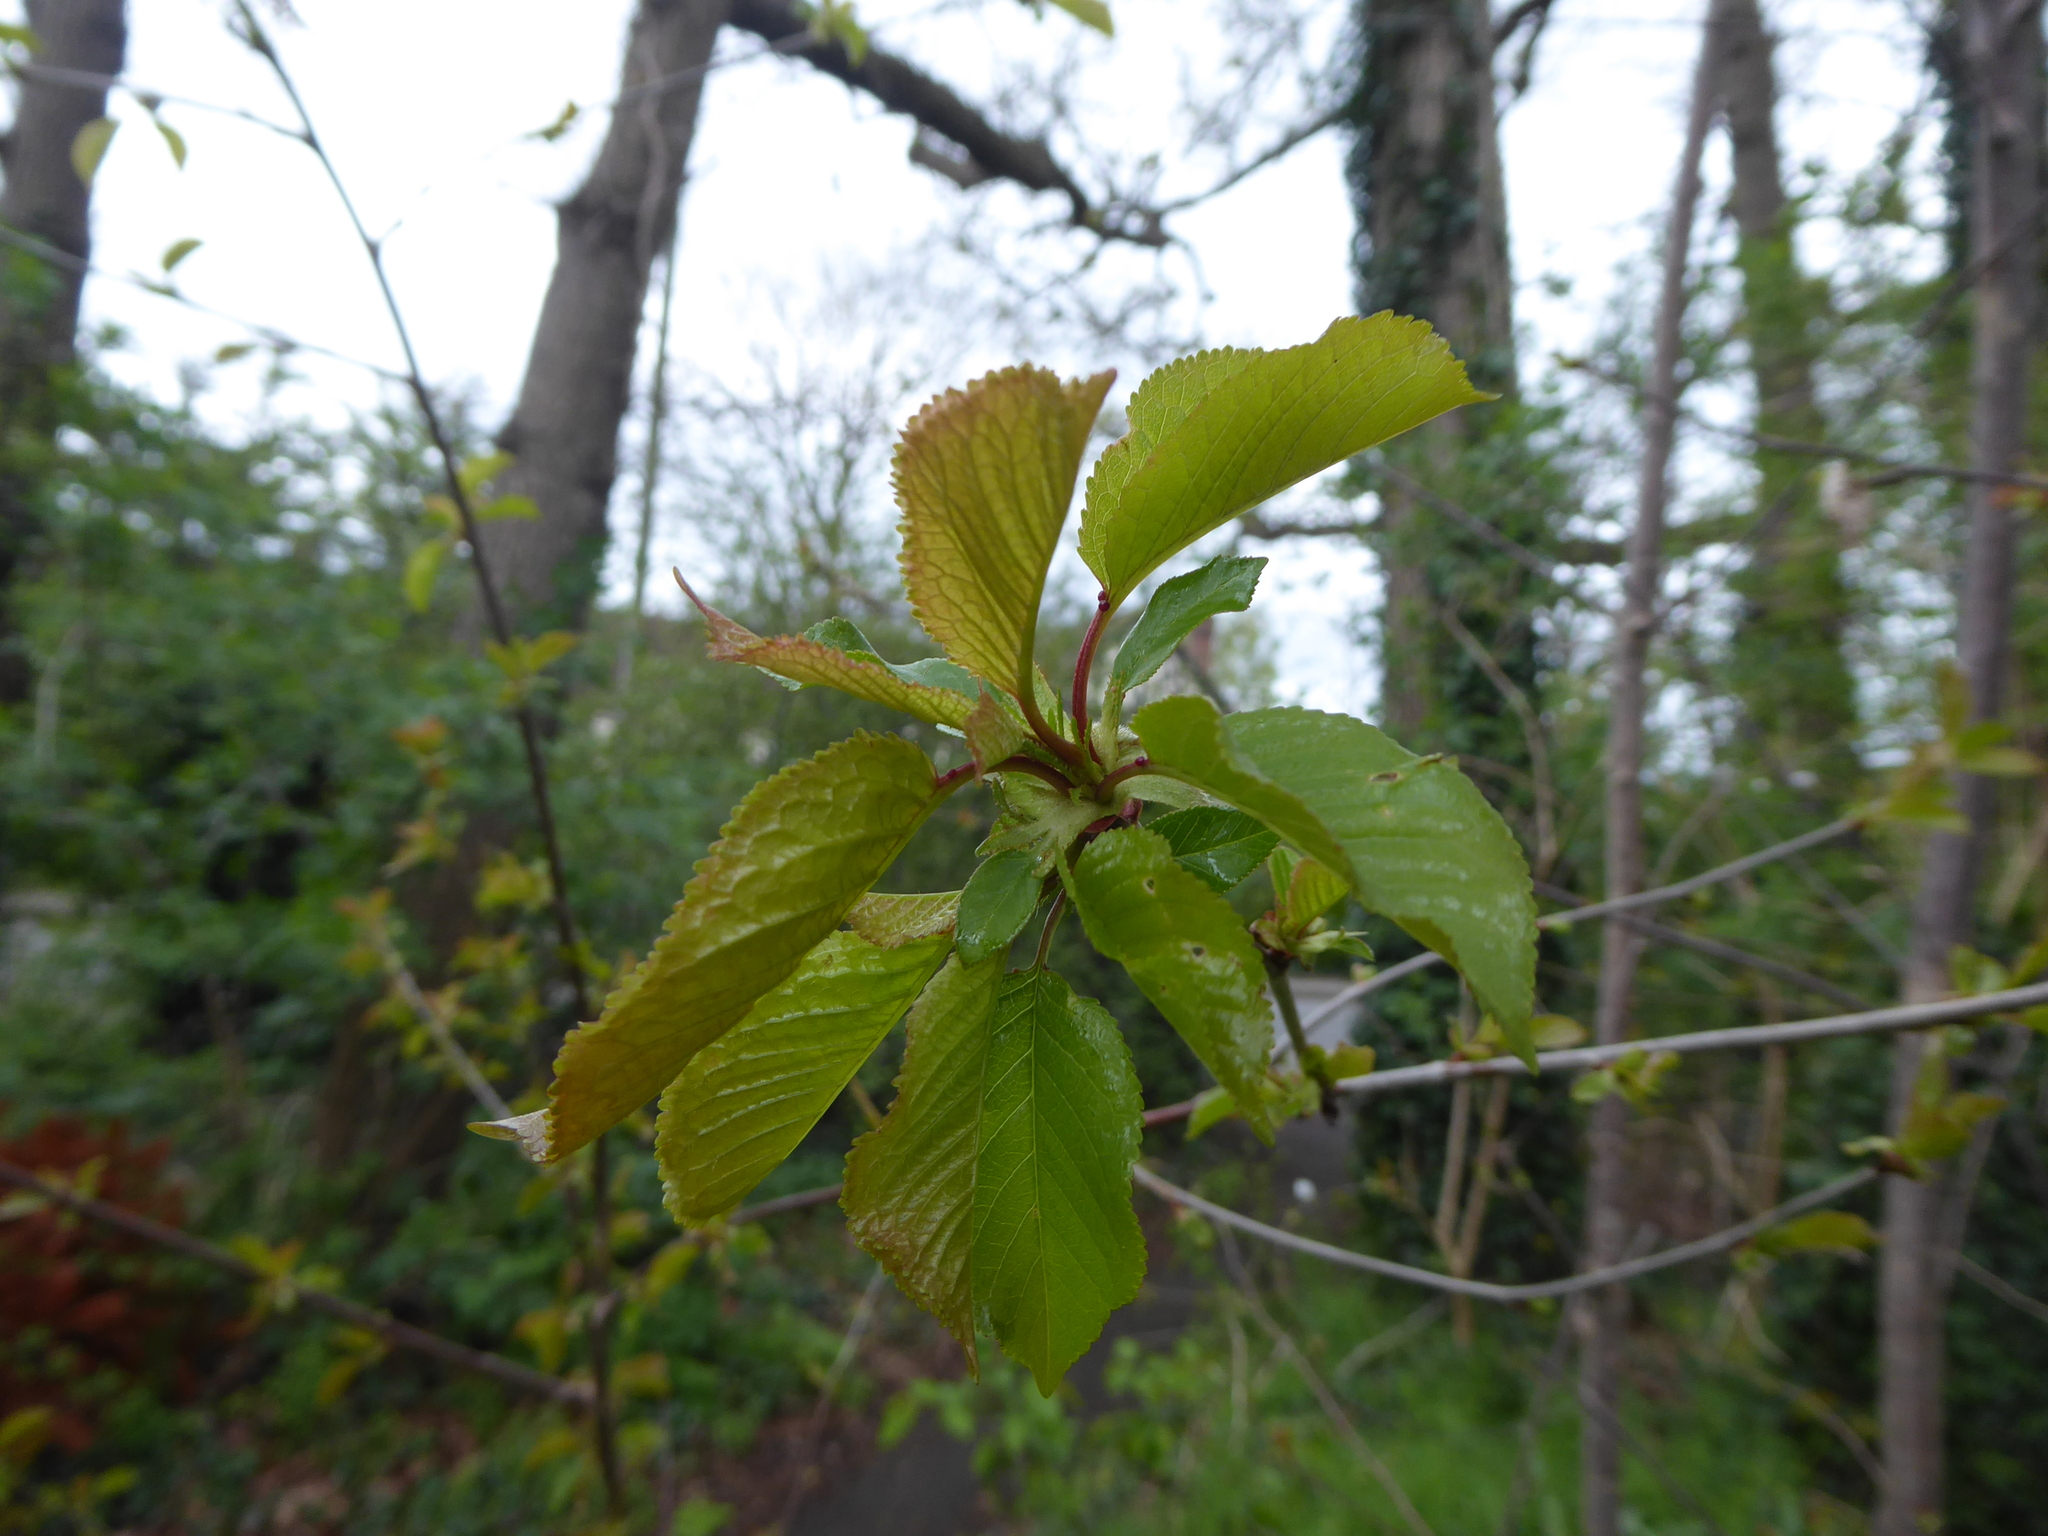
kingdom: Plantae
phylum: Tracheophyta
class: Magnoliopsida
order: Rosales
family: Rosaceae
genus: Prunus
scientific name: Prunus avium
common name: Sweet cherry
